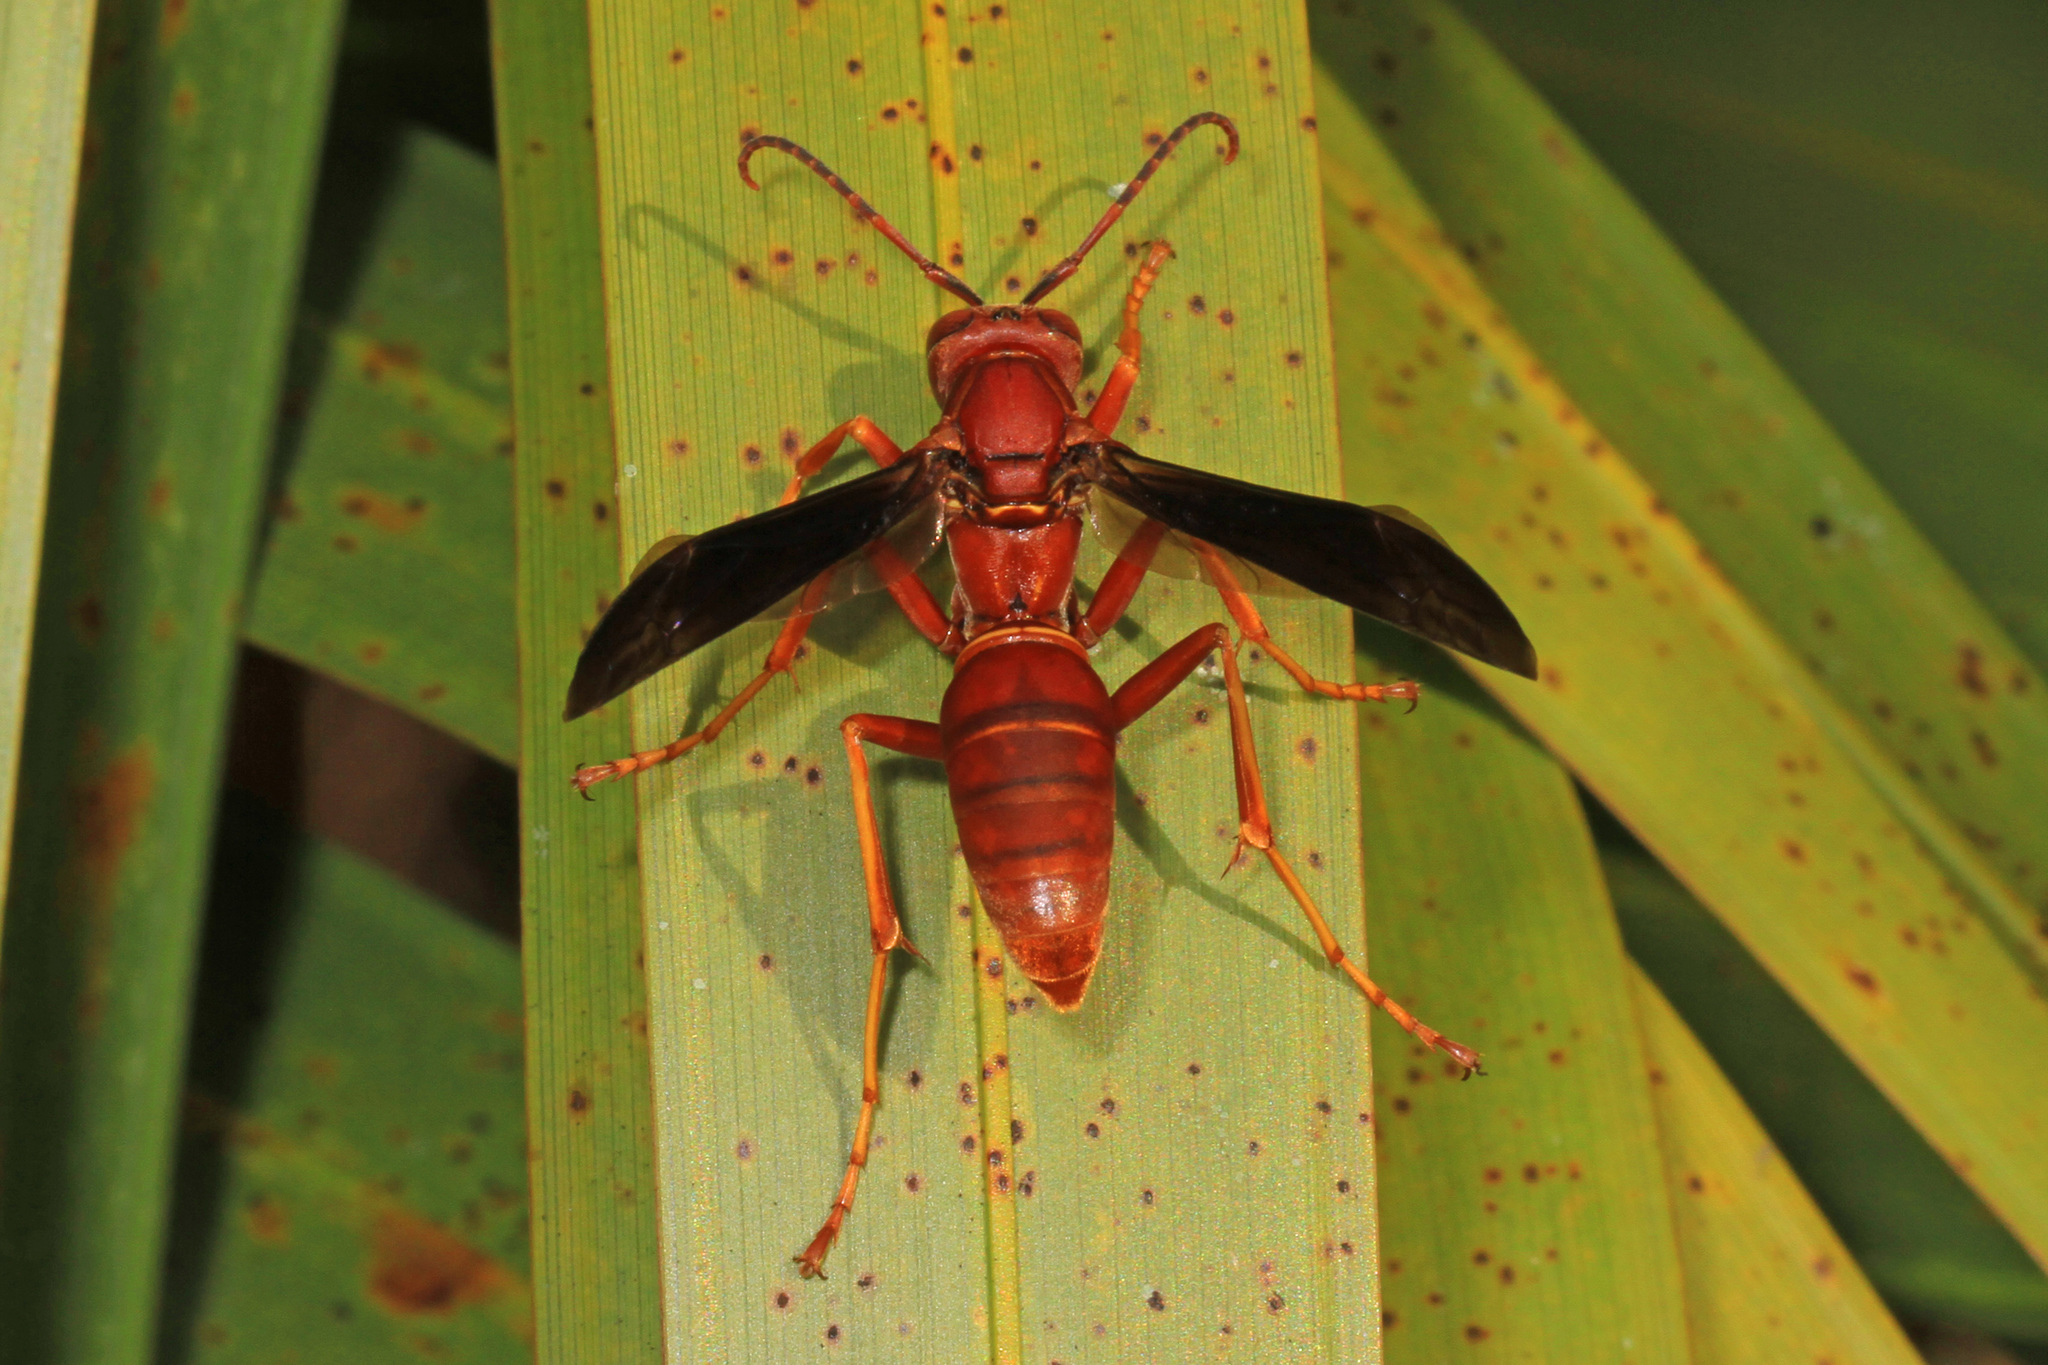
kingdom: Animalia
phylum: Arthropoda
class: Insecta
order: Hymenoptera
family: Eumenidae
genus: Polistes
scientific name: Polistes carolina
